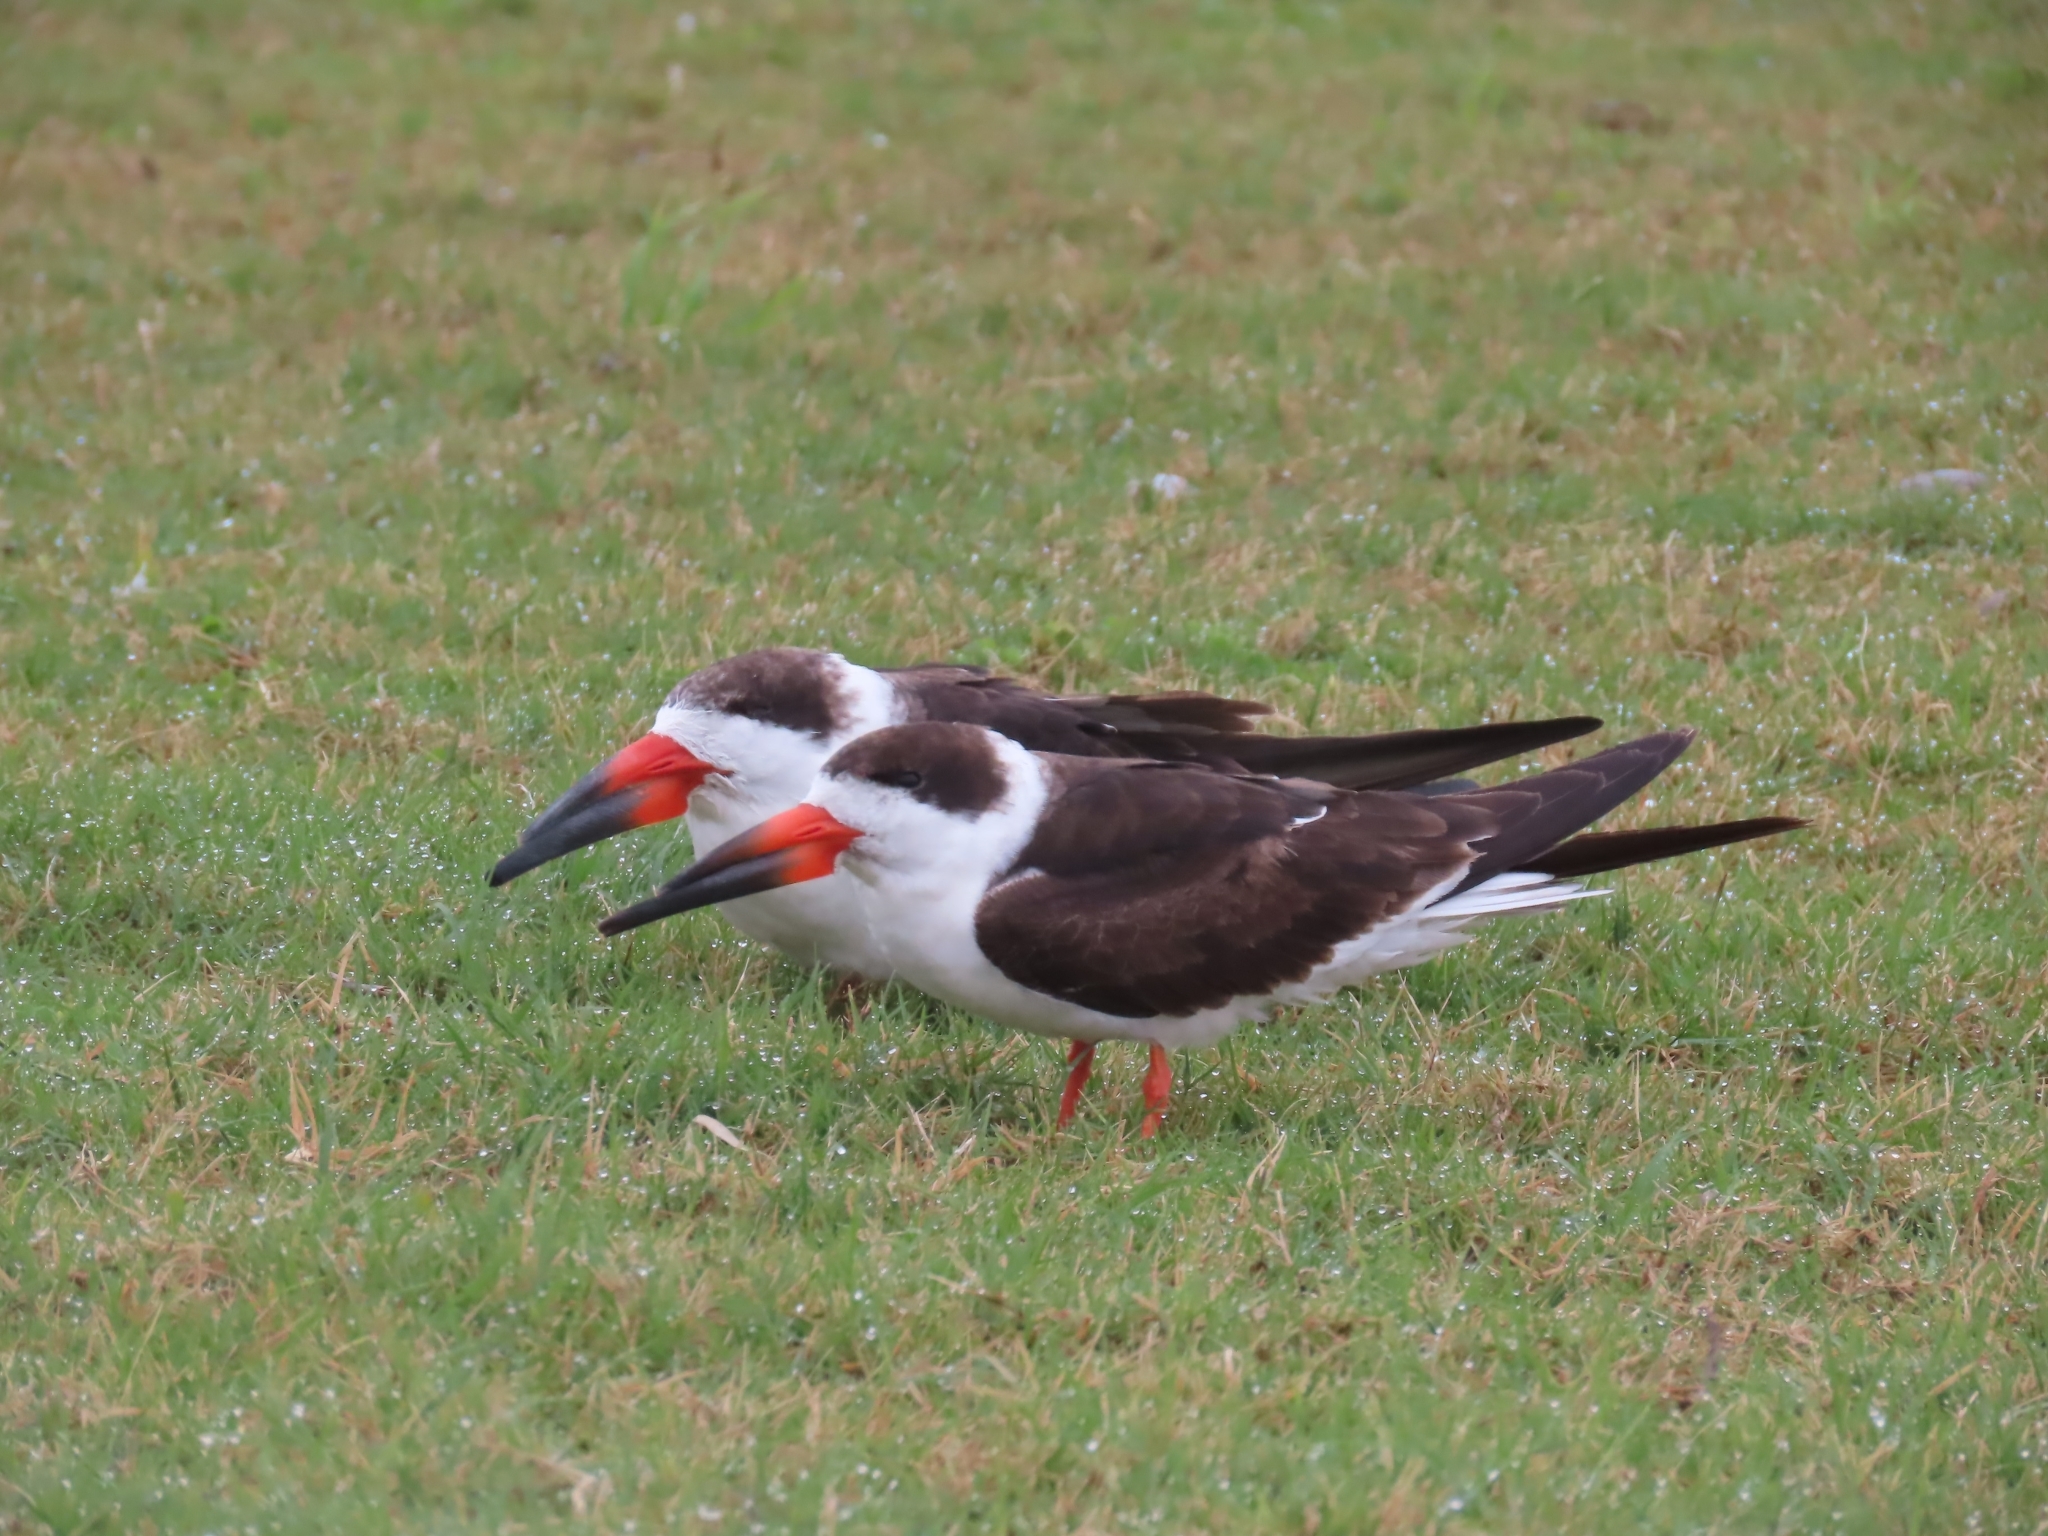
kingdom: Animalia
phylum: Chordata
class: Aves
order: Charadriiformes
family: Laridae
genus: Rynchops
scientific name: Rynchops niger
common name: Black skimmer
